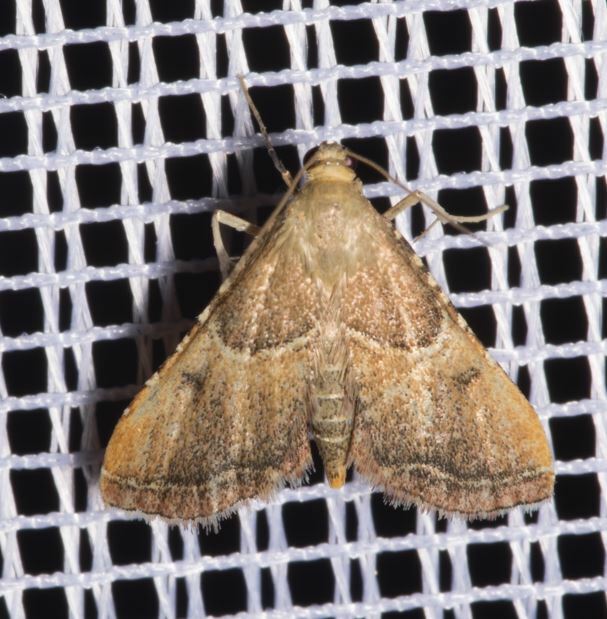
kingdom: Animalia
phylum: Arthropoda
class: Insecta
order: Lepidoptera
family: Pyralidae
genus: Endotricha
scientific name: Endotricha flammealis
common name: Rosy tabby
